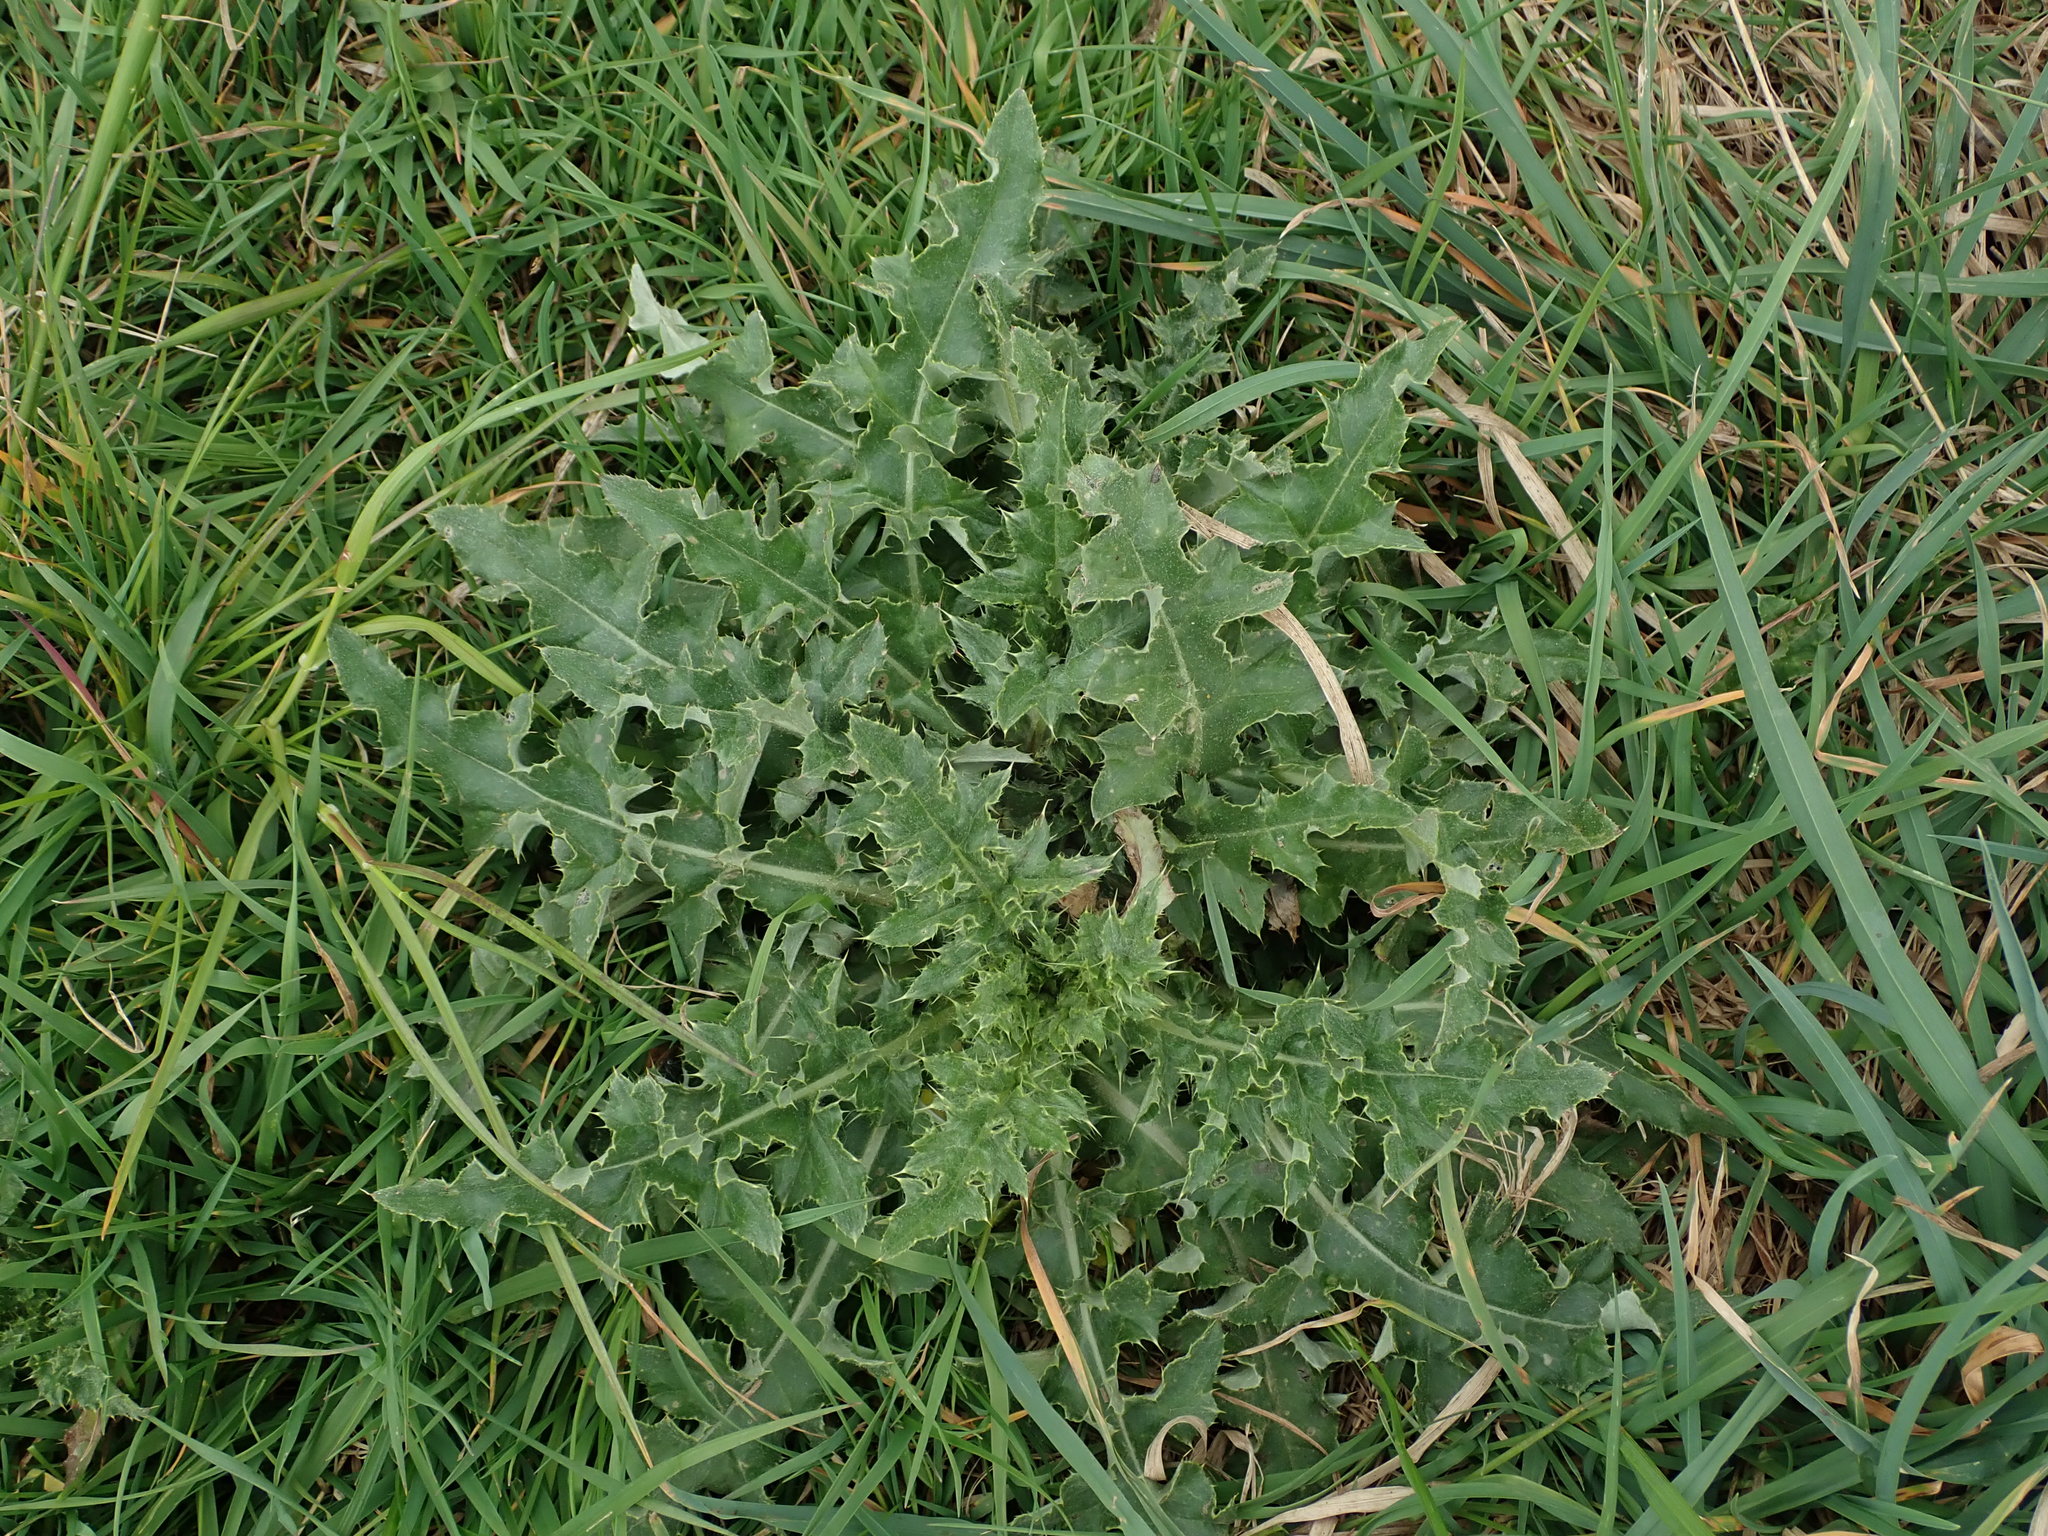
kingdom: Plantae
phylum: Tracheophyta
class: Magnoliopsida
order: Asterales
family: Asteraceae
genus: Cirsium
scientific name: Cirsium arvense
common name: Creeping thistle
